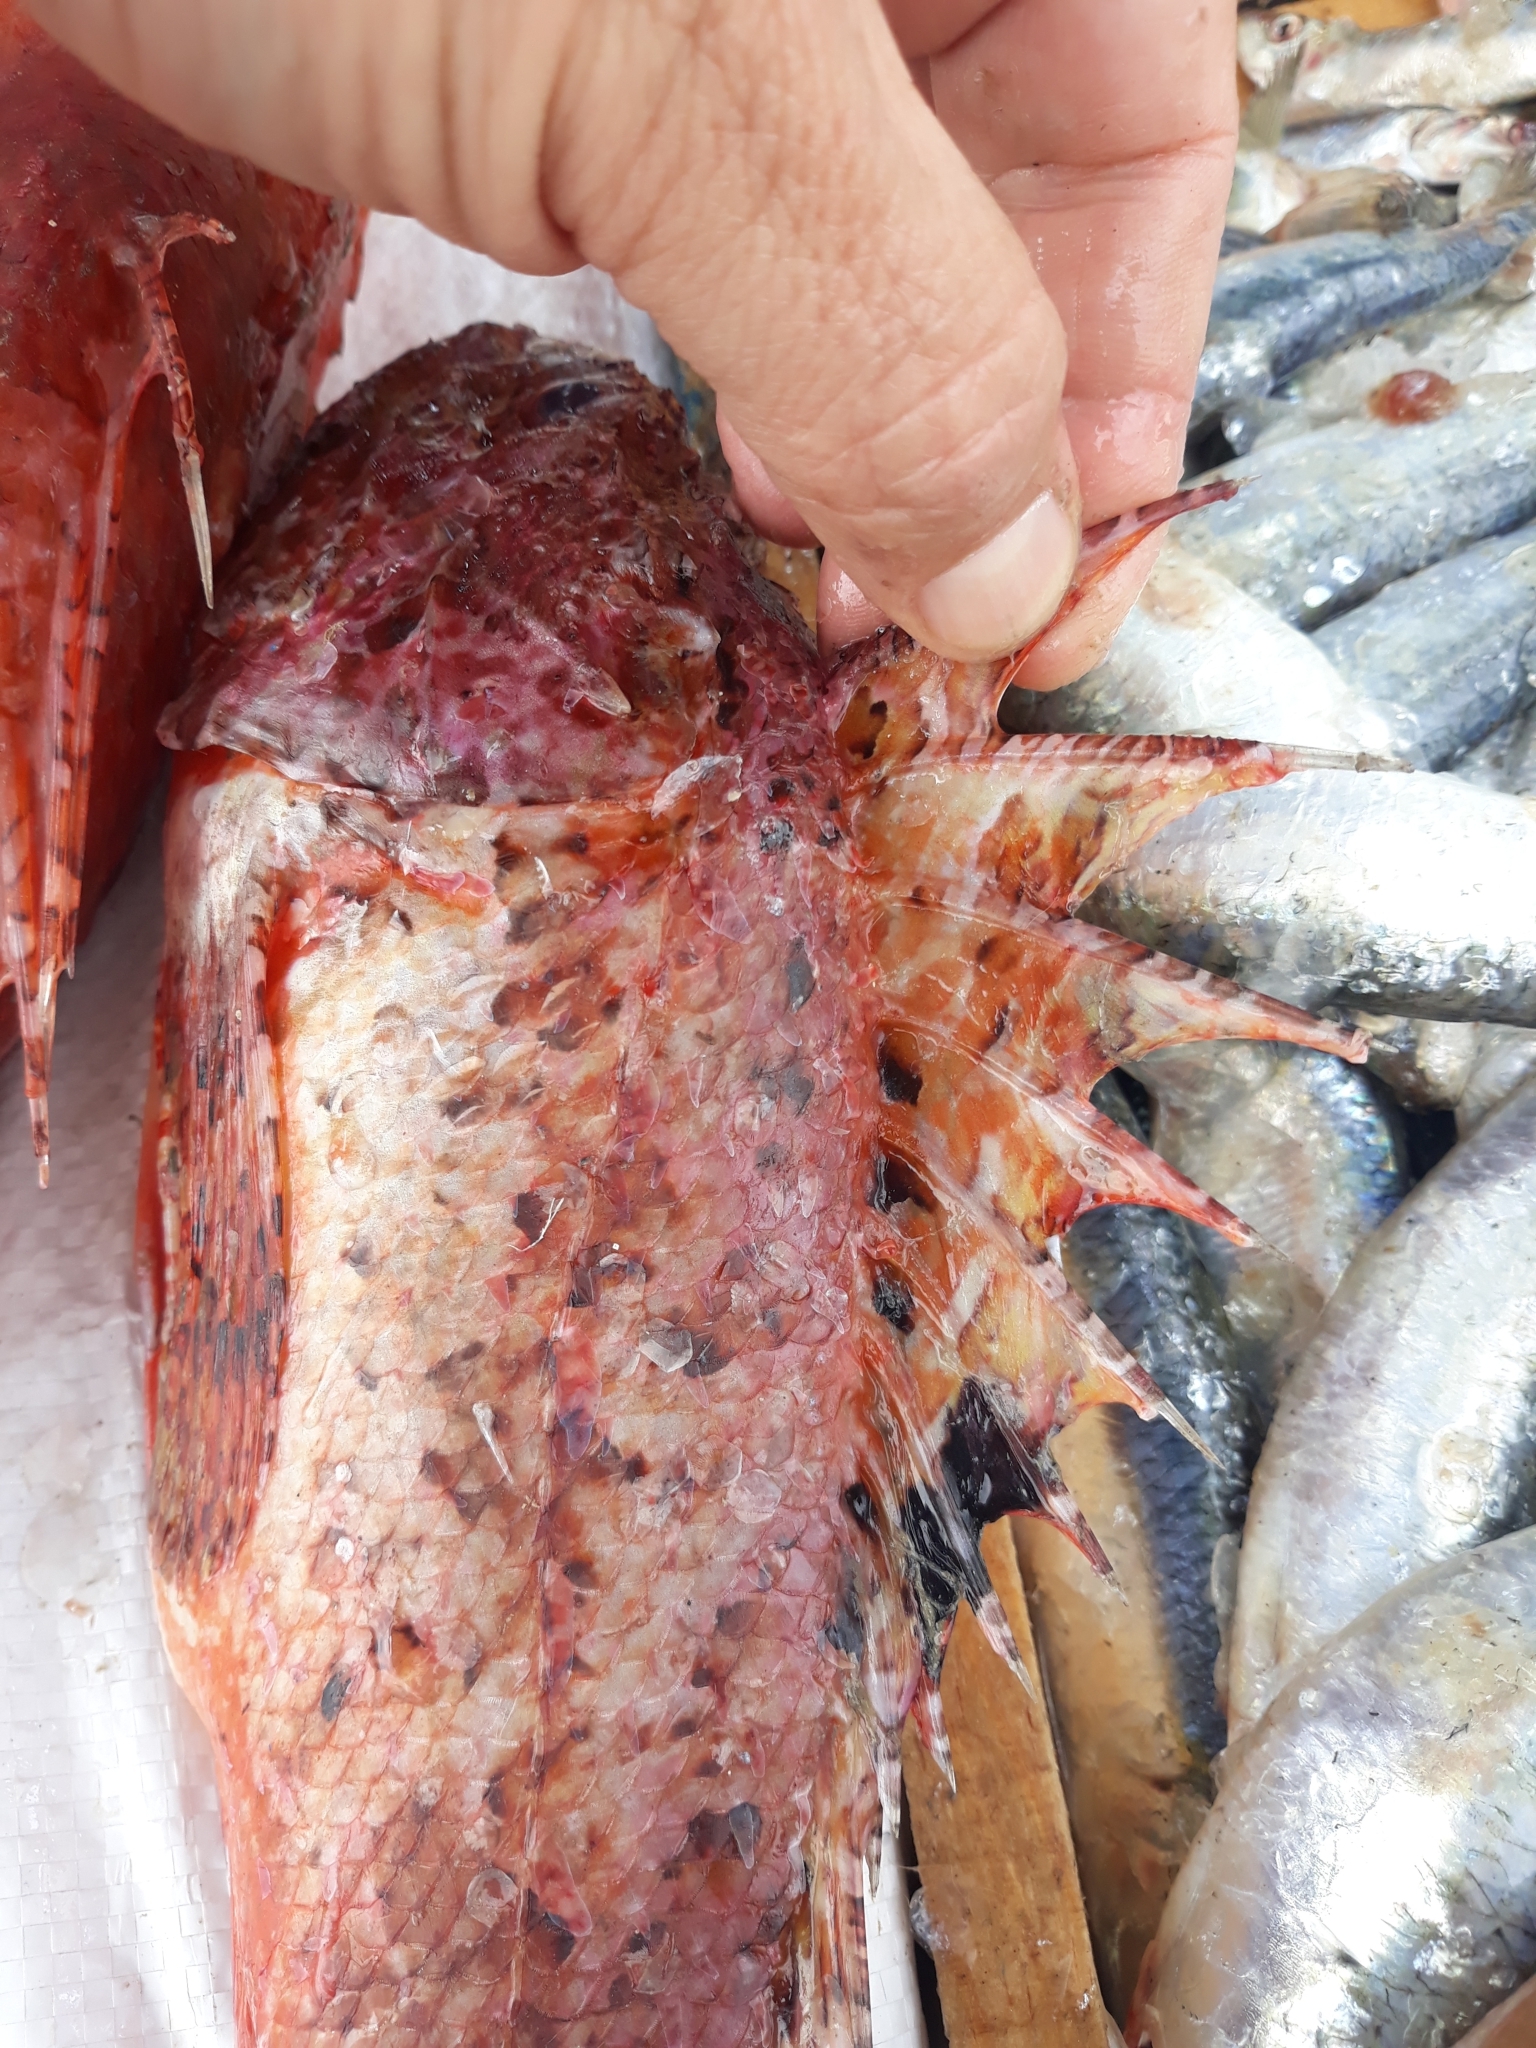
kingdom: Animalia
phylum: Chordata
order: Scorpaeniformes
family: Scorpaenidae
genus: Scorpaena
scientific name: Scorpaena scrofa
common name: Red scorpionfish
